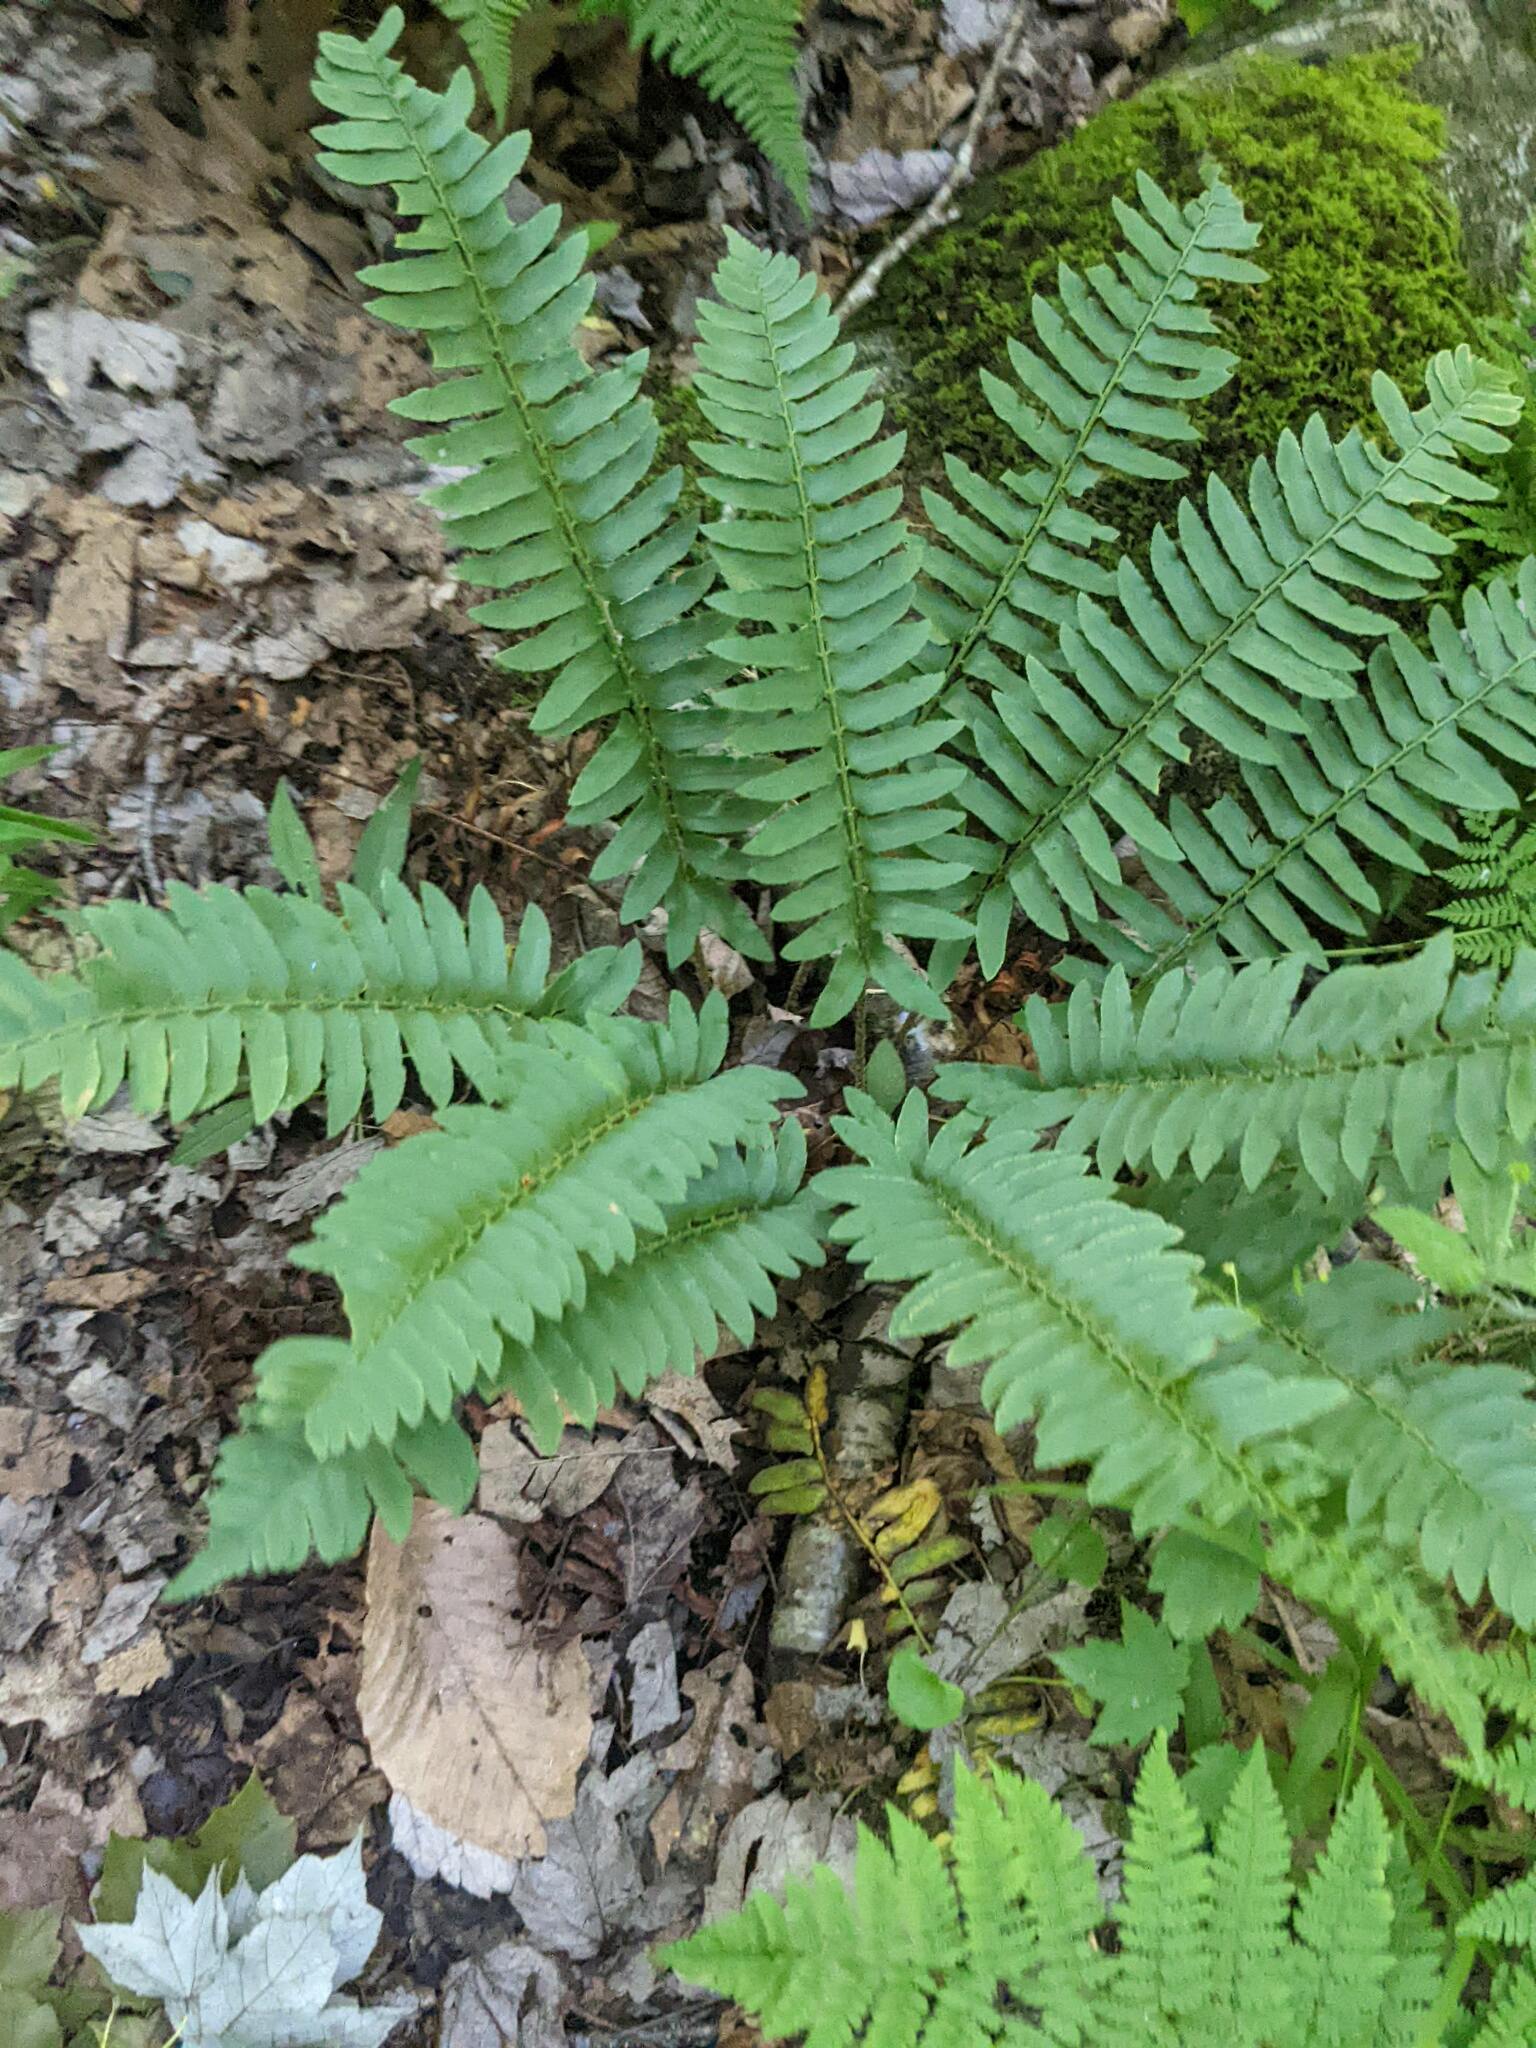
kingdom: Plantae
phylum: Tracheophyta
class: Polypodiopsida
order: Polypodiales
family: Dryopteridaceae
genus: Polystichum
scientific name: Polystichum acrostichoides
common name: Christmas fern
